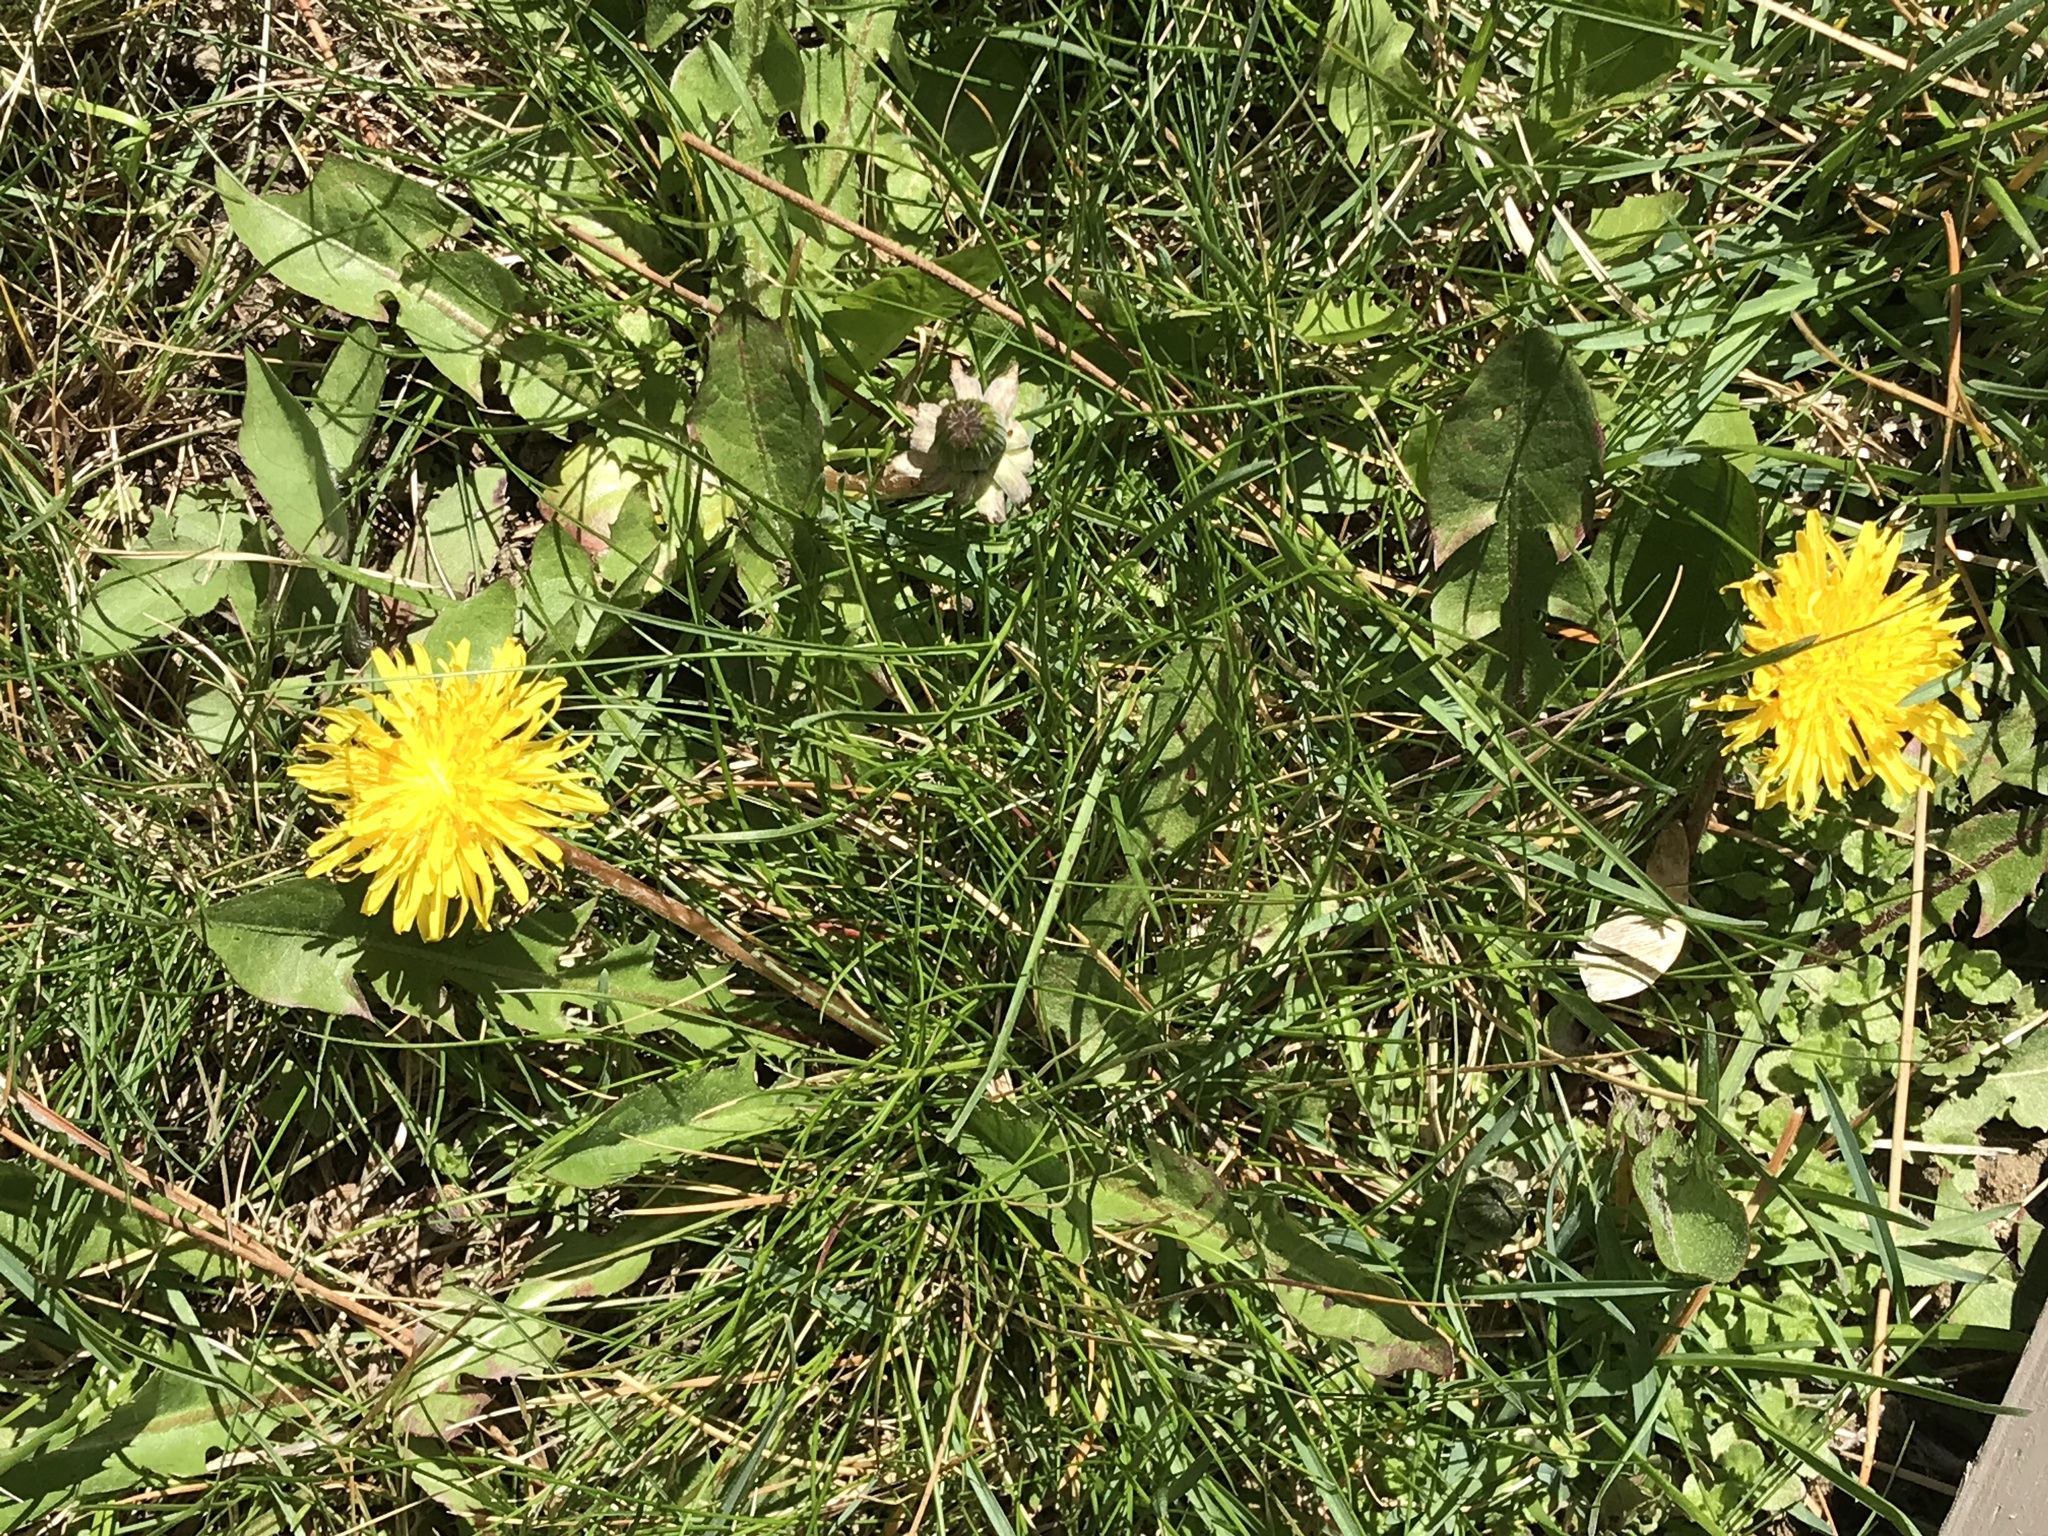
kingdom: Plantae
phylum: Tracheophyta
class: Magnoliopsida
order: Asterales
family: Asteraceae
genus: Taraxacum
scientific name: Taraxacum officinale
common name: Common dandelion
